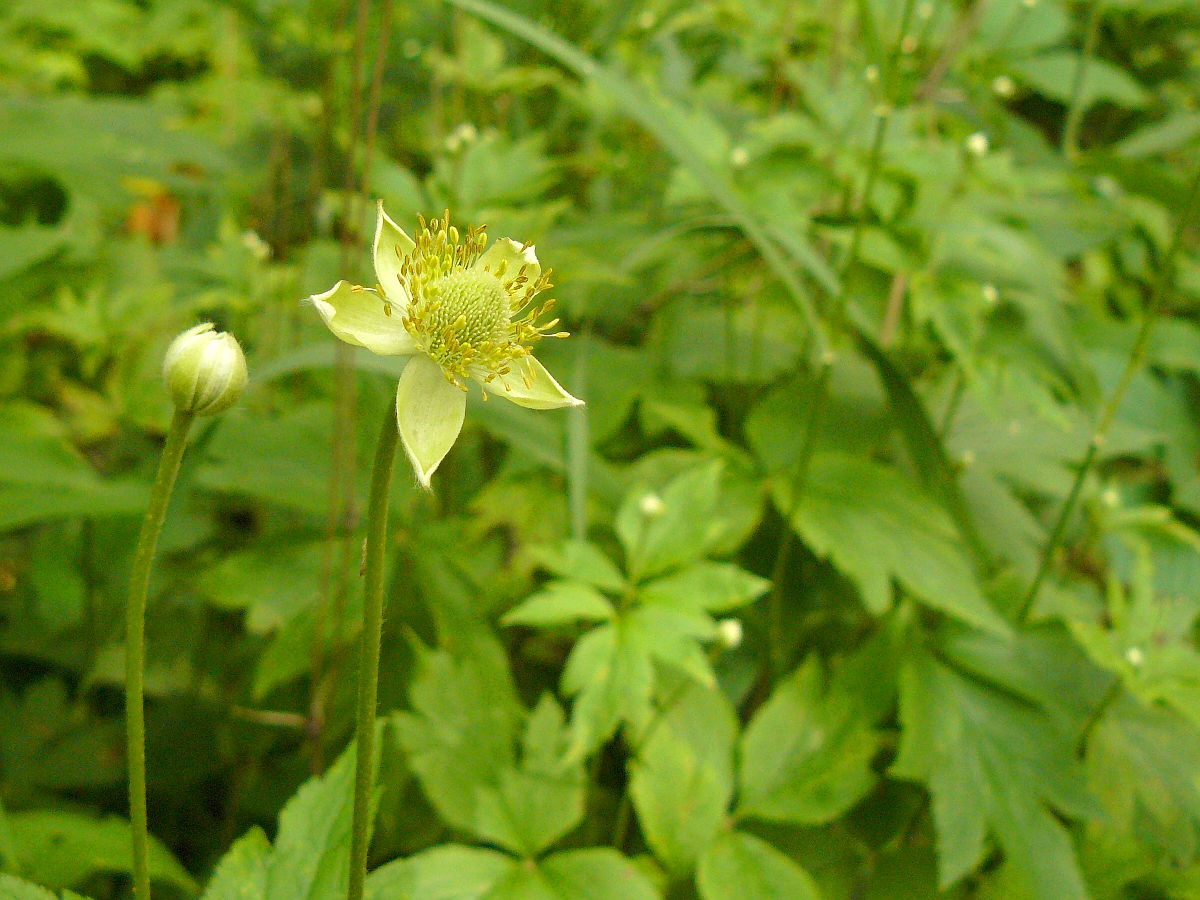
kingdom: Plantae
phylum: Tracheophyta
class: Magnoliopsida
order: Ranunculales
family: Ranunculaceae
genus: Anemone
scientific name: Anemone virginiana
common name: Tall anemone
